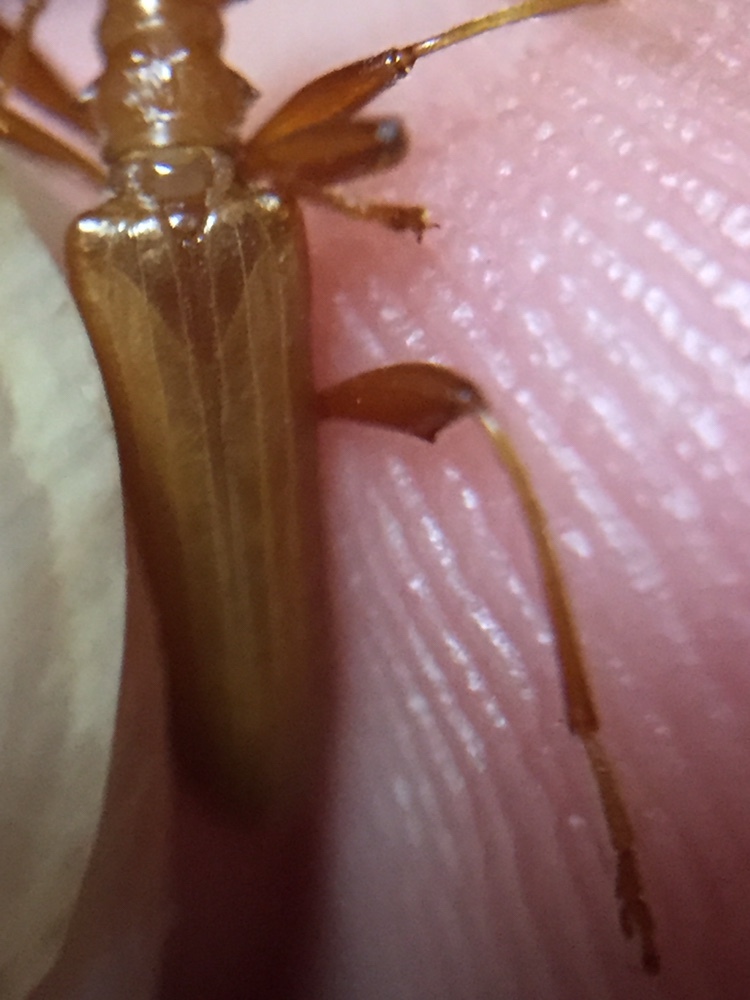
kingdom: Animalia
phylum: Arthropoda
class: Insecta
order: Coleoptera
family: Cerambycidae
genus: Votum
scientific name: Votum munda
